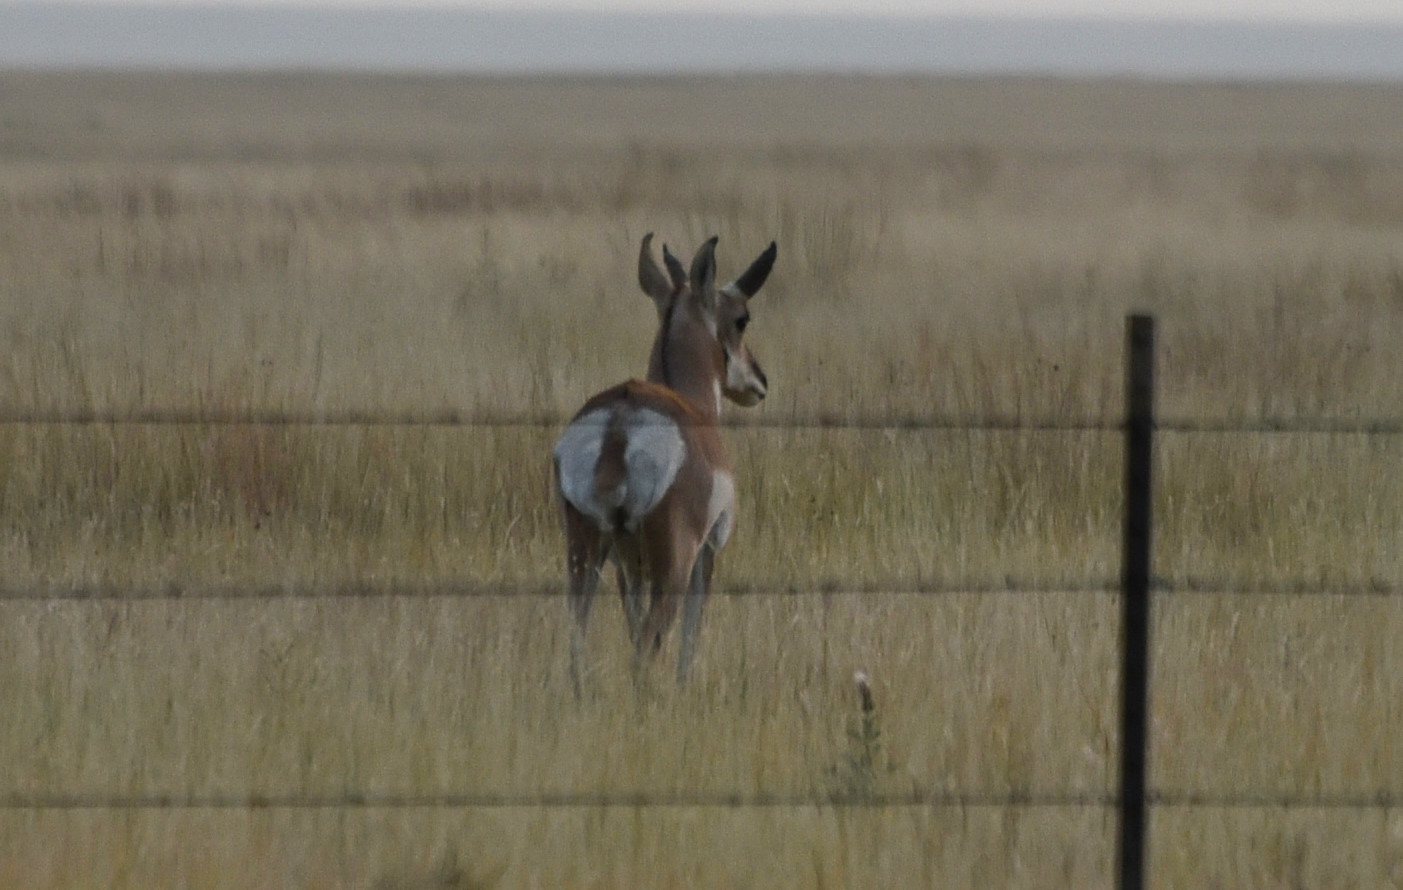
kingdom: Animalia
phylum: Chordata
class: Mammalia
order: Artiodactyla
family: Antilocapridae
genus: Antilocapra
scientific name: Antilocapra americana
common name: Pronghorn
